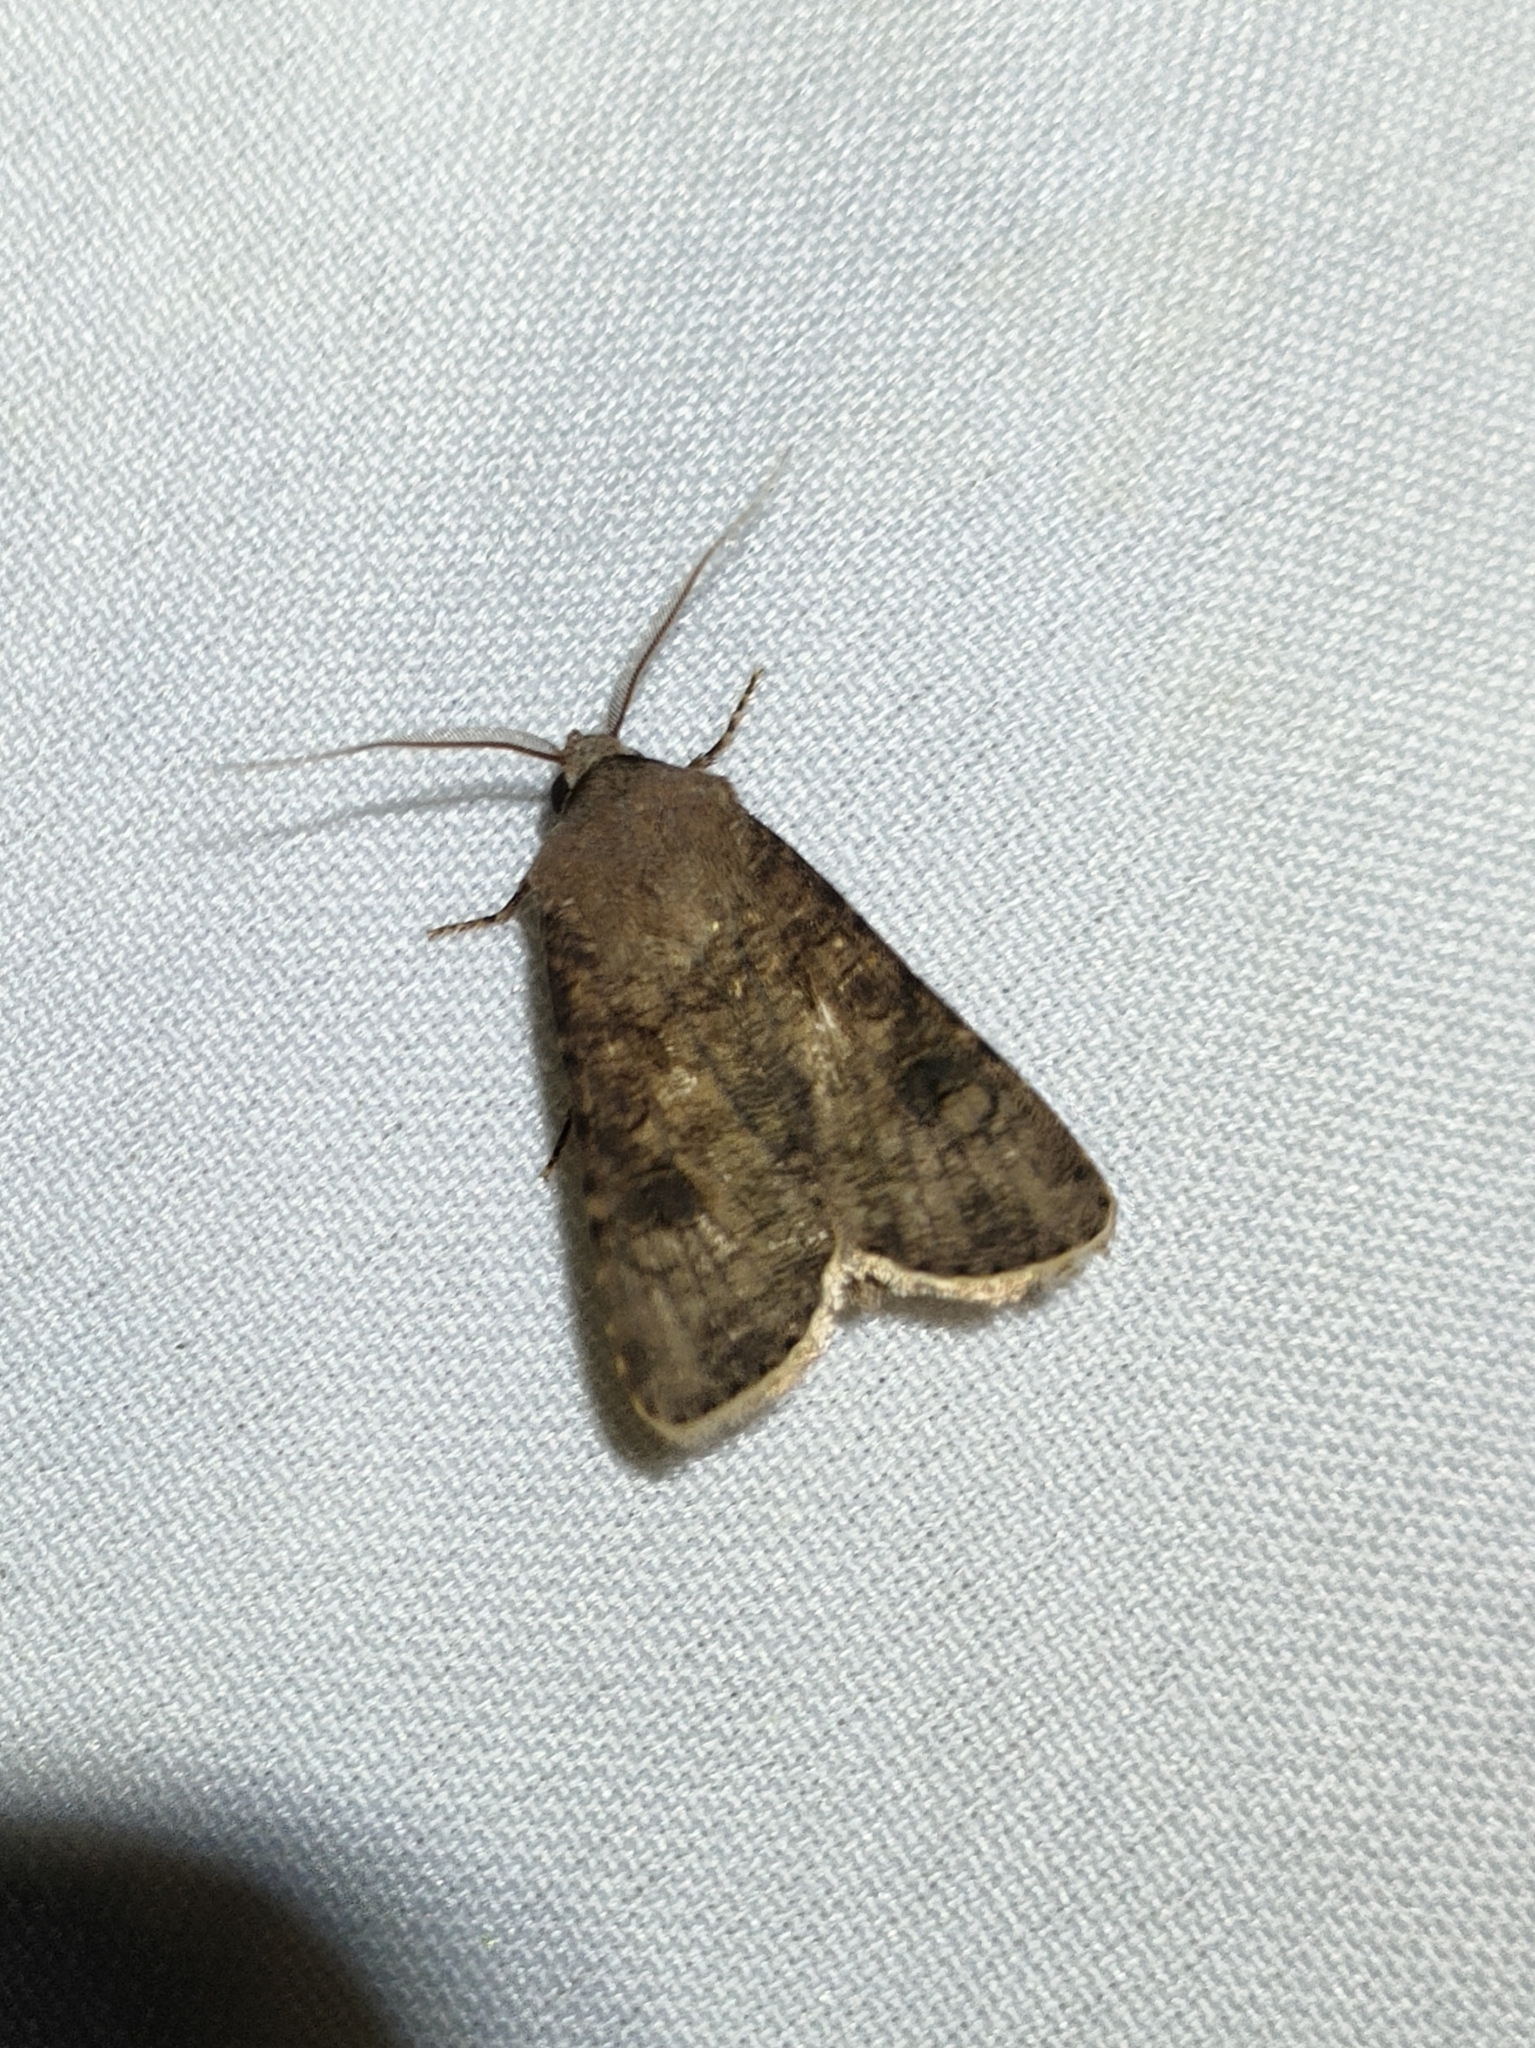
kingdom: Animalia
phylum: Arthropoda
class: Insecta
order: Lepidoptera
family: Noctuidae
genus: Agrotis
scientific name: Agrotis segetum
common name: Turnip moth
